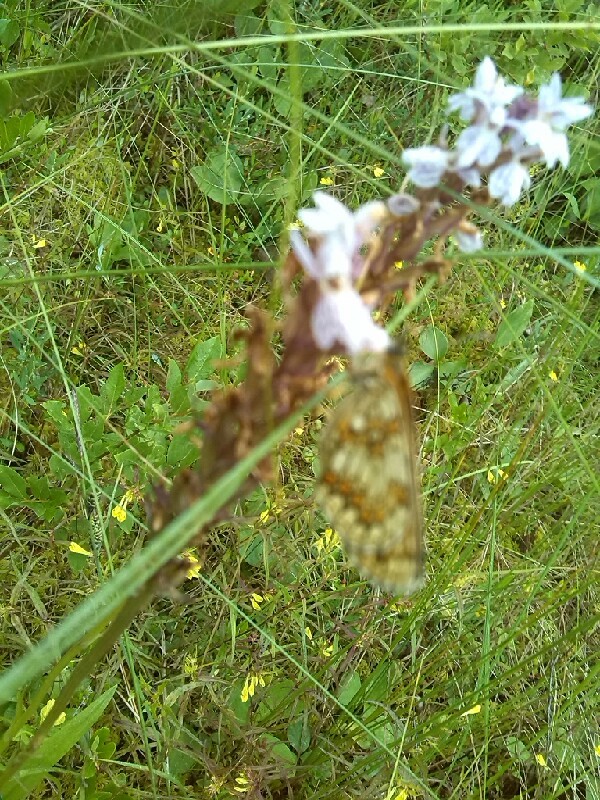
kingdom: Plantae
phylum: Tracheophyta
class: Liliopsida
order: Asparagales
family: Orchidaceae
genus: Dactylorhiza
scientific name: Dactylorhiza maculata
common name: Heath spotted-orchid
